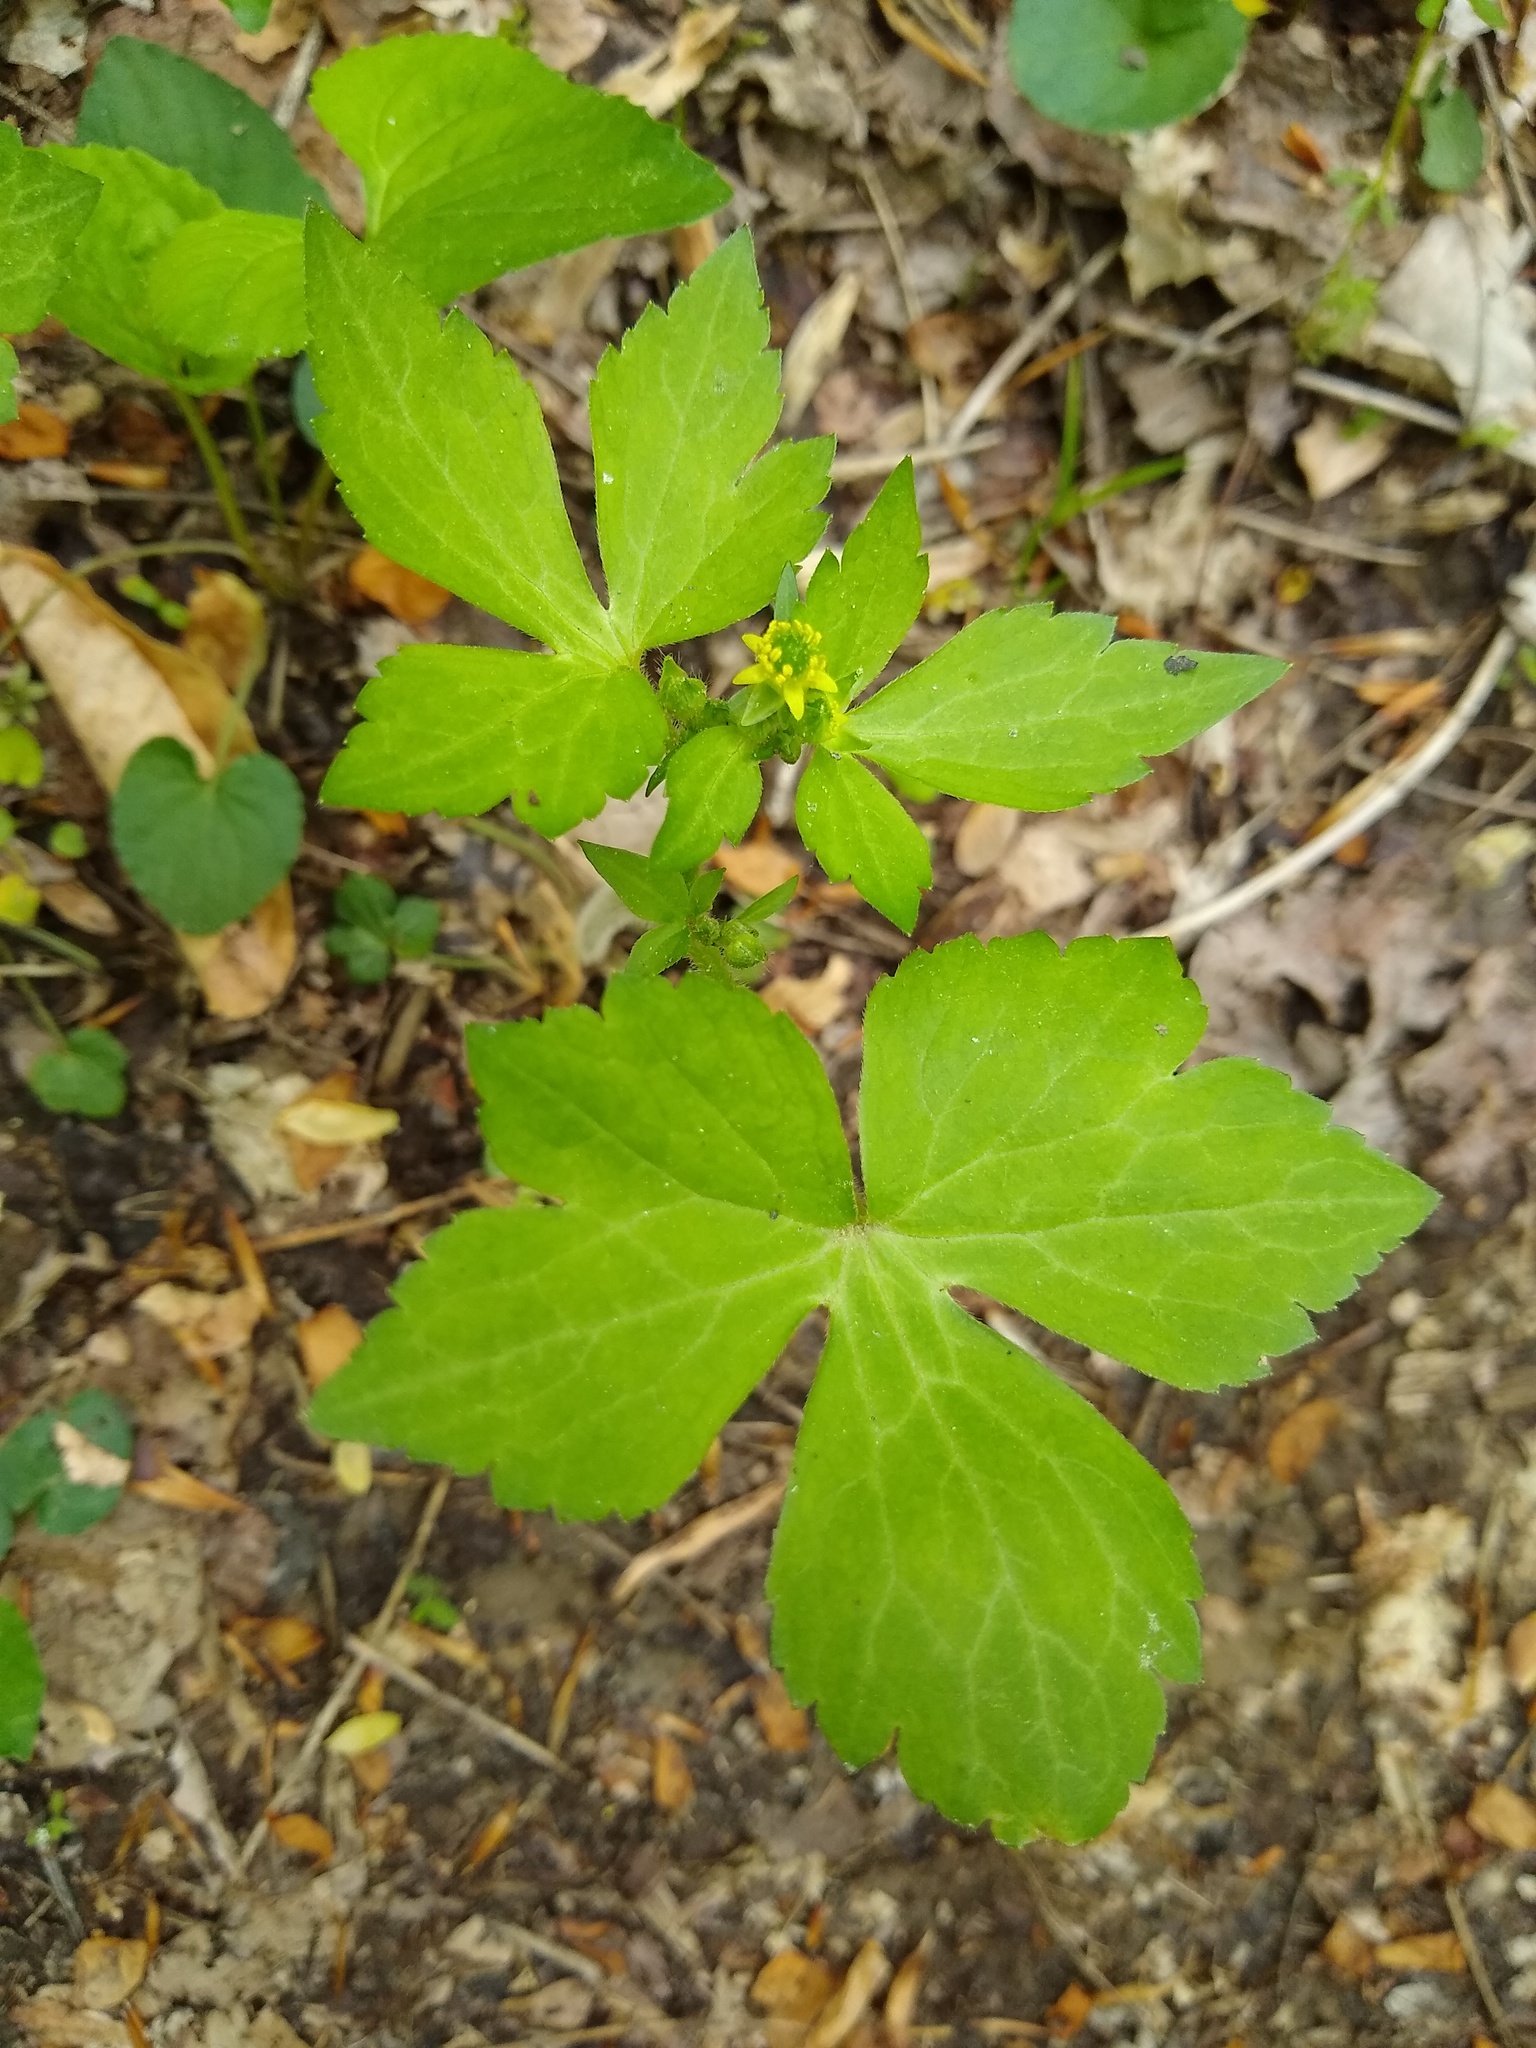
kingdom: Plantae
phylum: Tracheophyta
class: Magnoliopsida
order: Ranunculales
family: Ranunculaceae
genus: Ranunculus
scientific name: Ranunculus recurvatus
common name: Blisterwort
